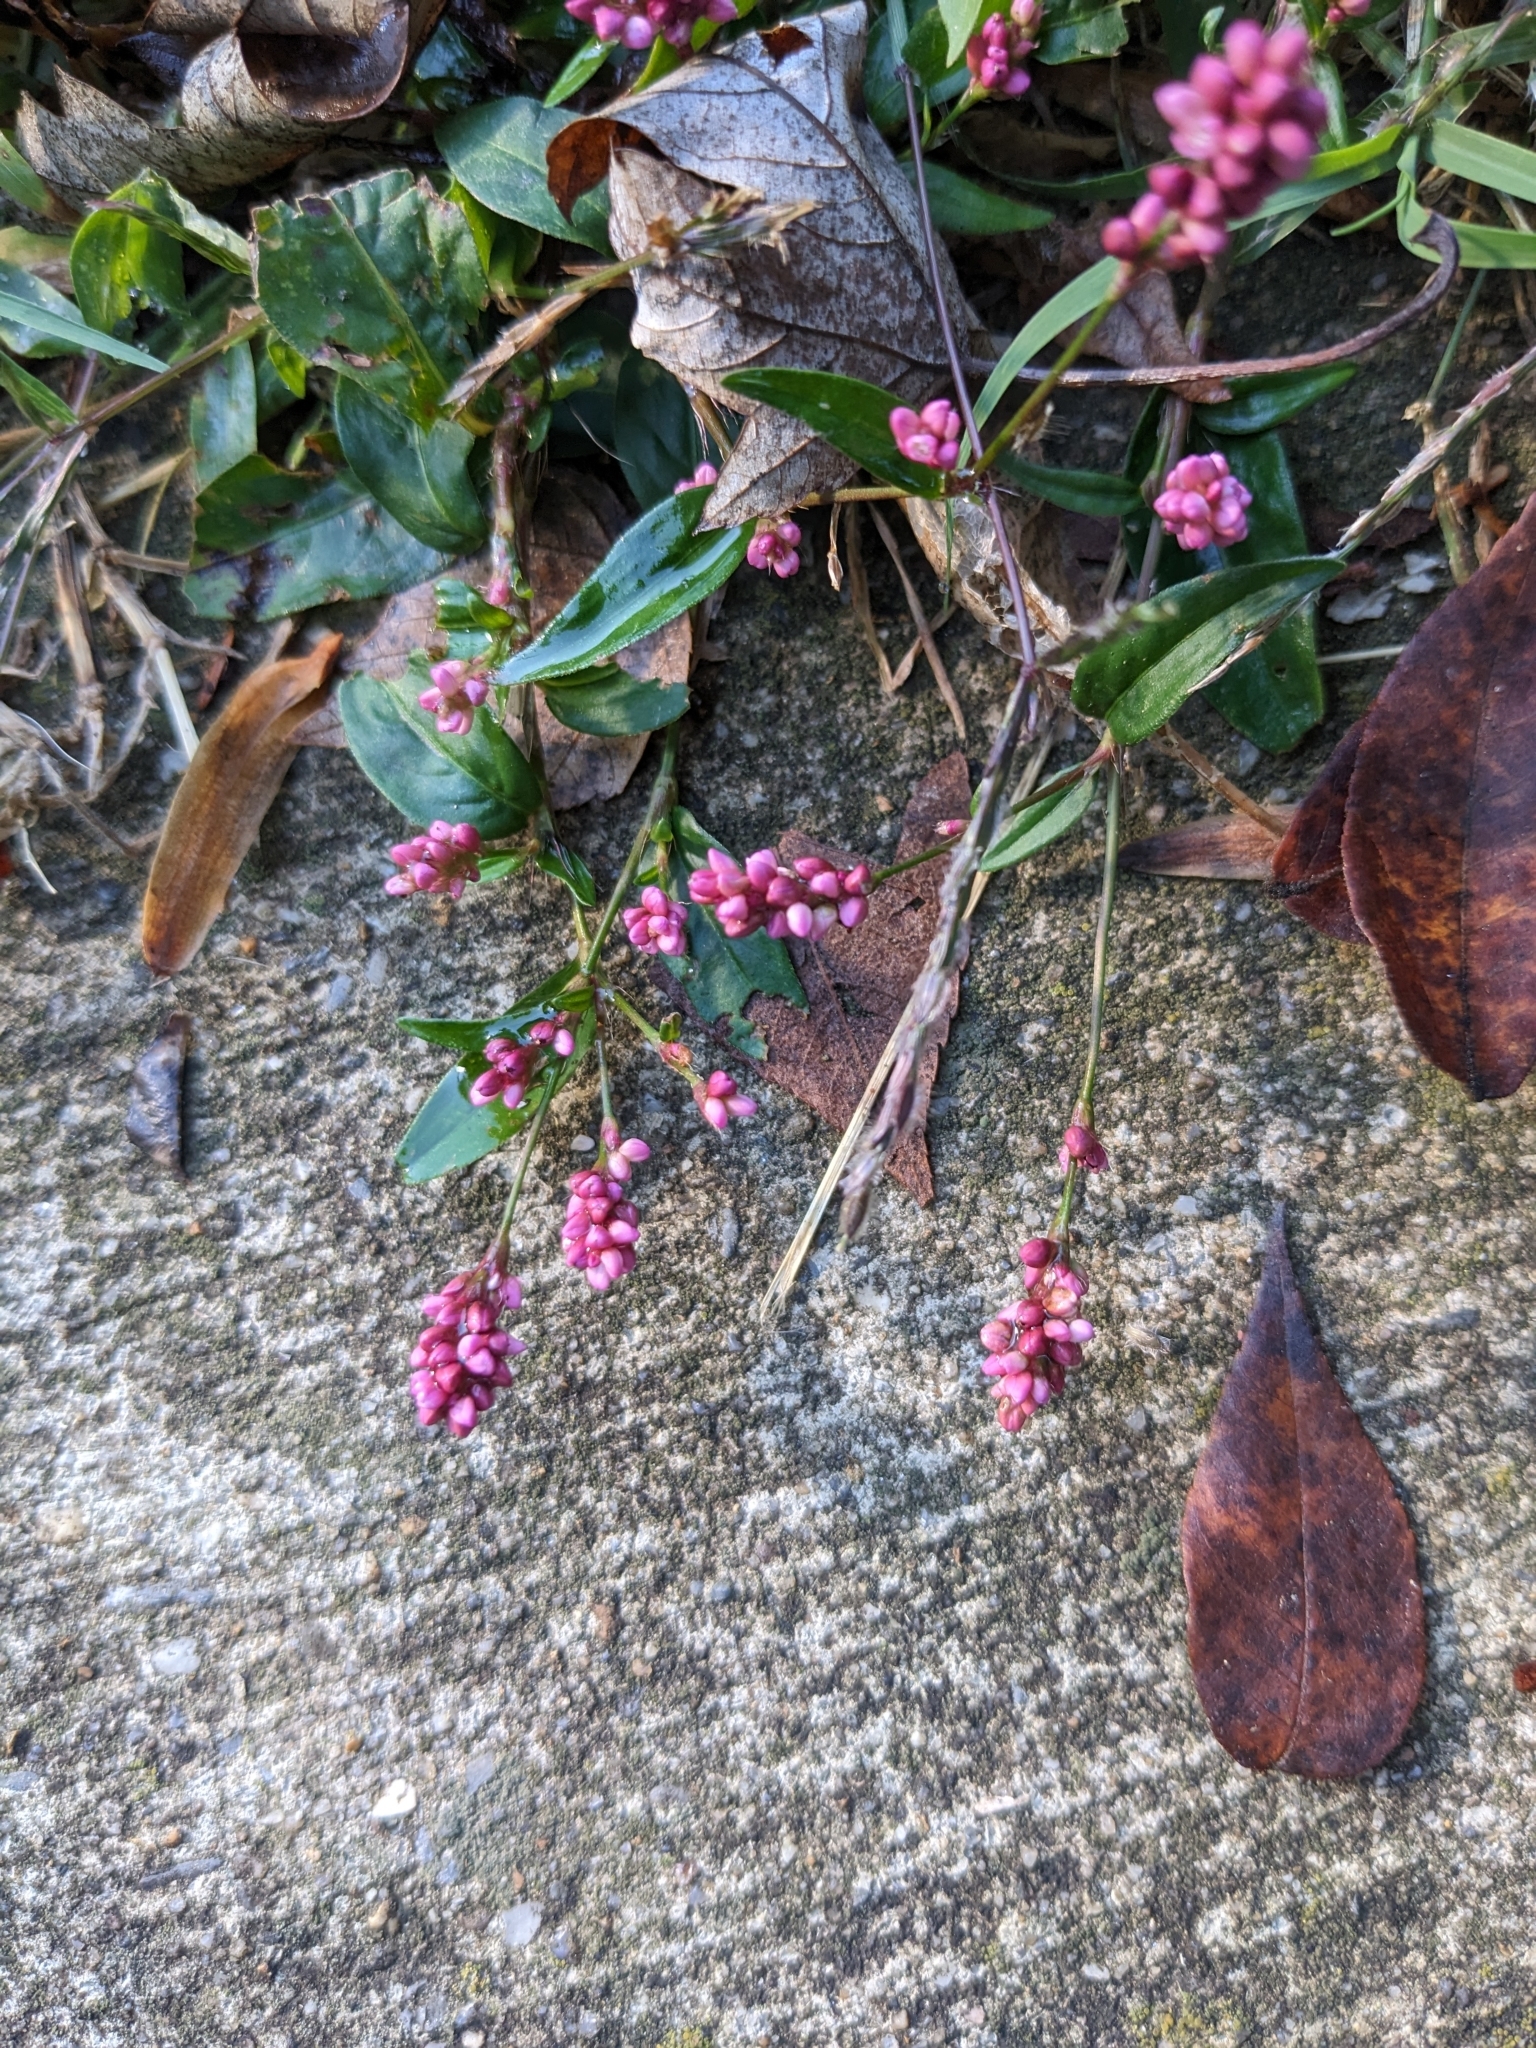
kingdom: Plantae
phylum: Tracheophyta
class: Magnoliopsida
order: Caryophyllales
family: Polygonaceae
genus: Persicaria
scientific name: Persicaria longiseta
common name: Bristly lady's-thumb
